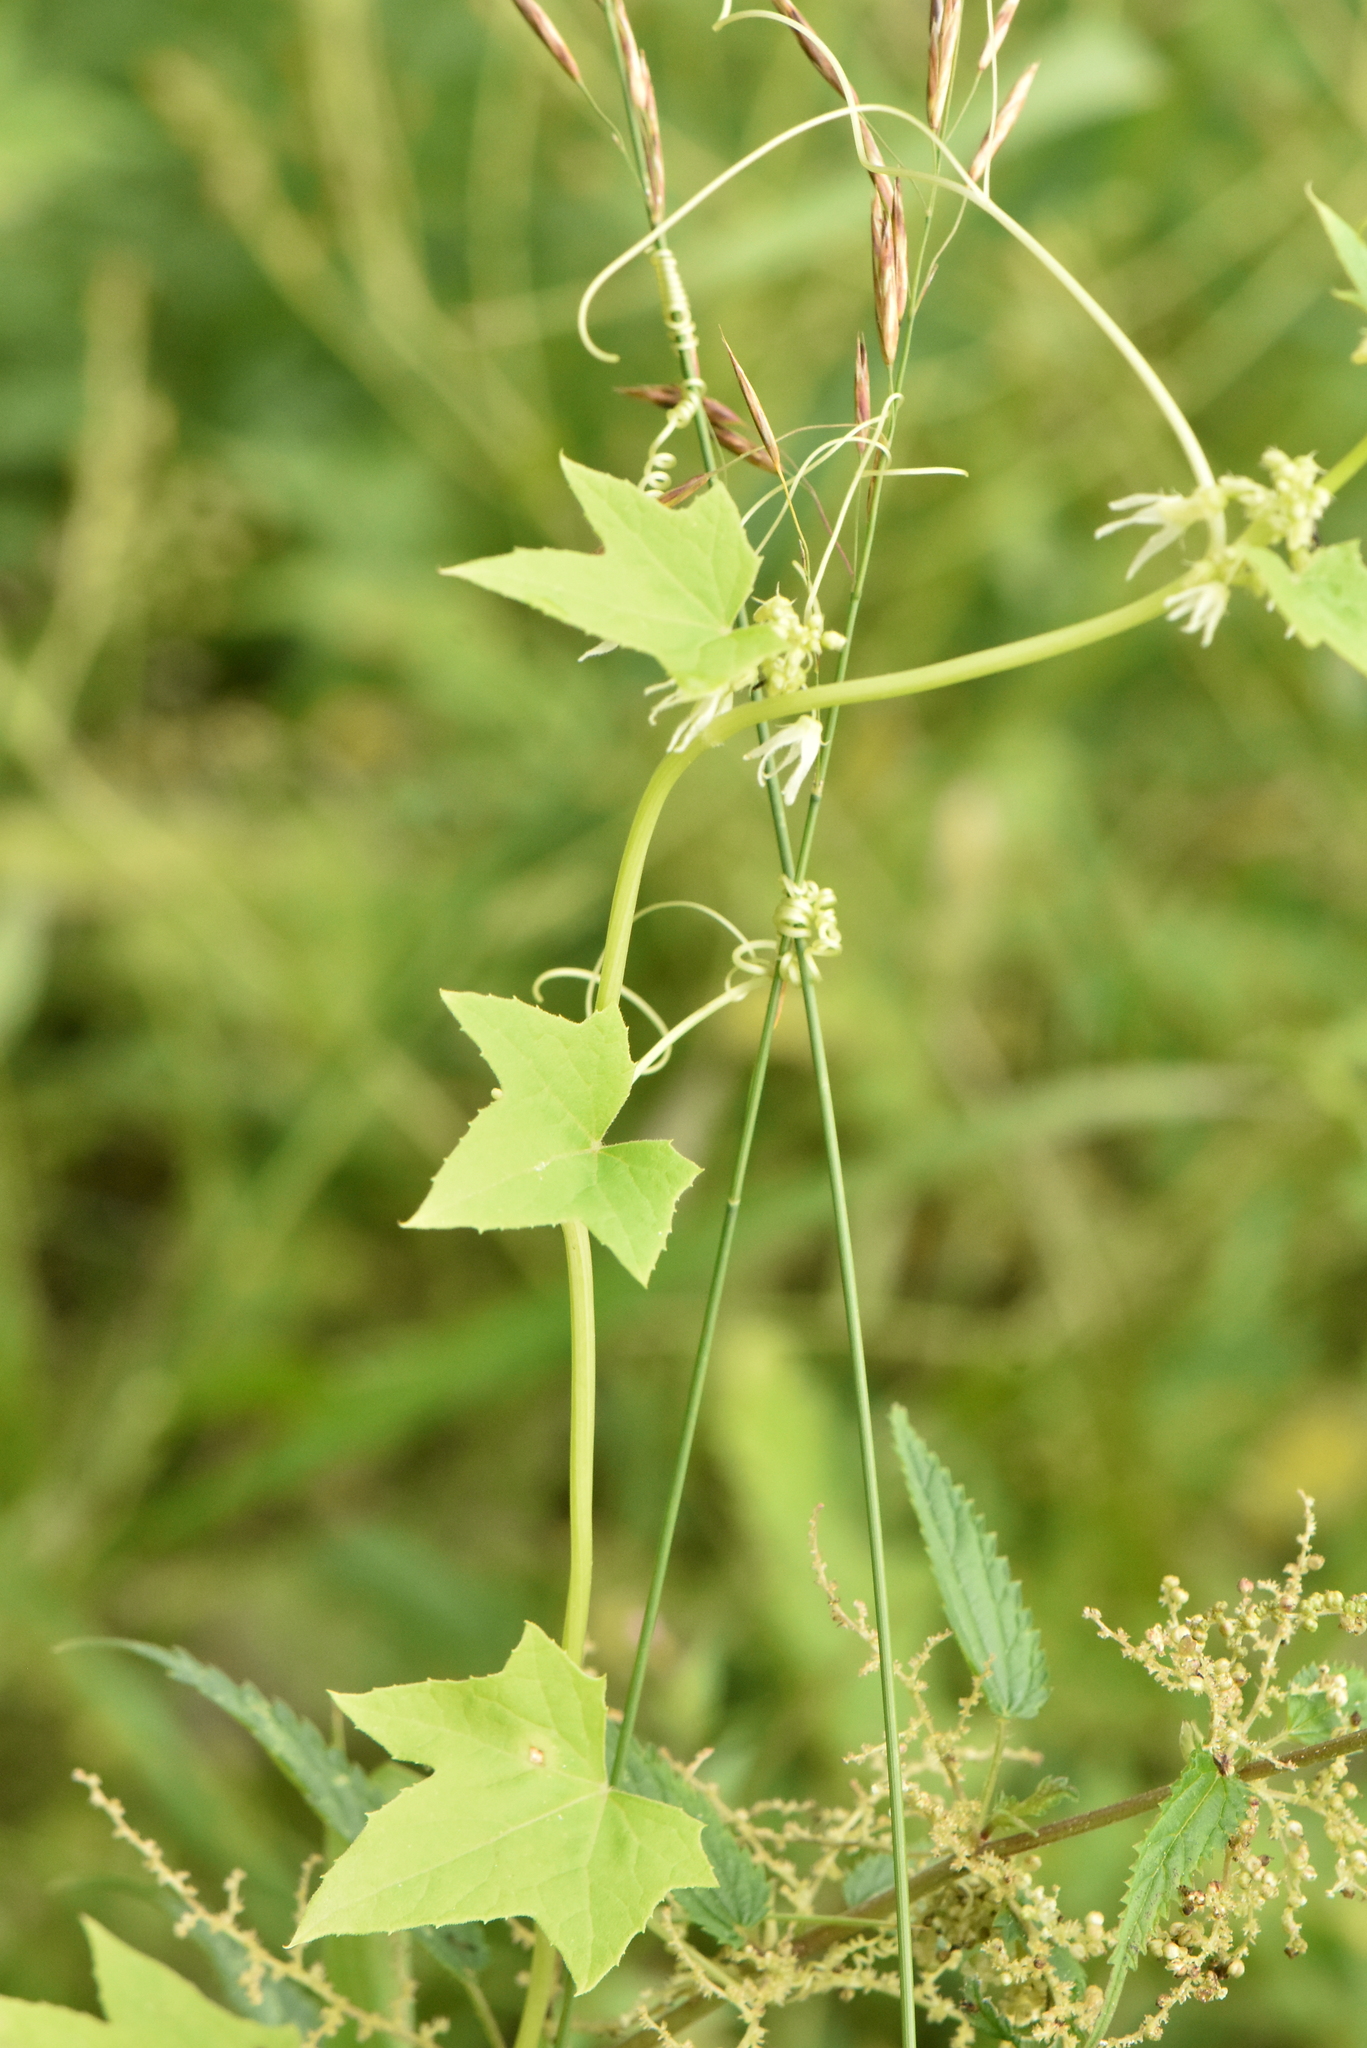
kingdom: Plantae
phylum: Tracheophyta
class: Magnoliopsida
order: Cucurbitales
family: Cucurbitaceae
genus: Echinocystis
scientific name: Echinocystis lobata
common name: Wild cucumber
